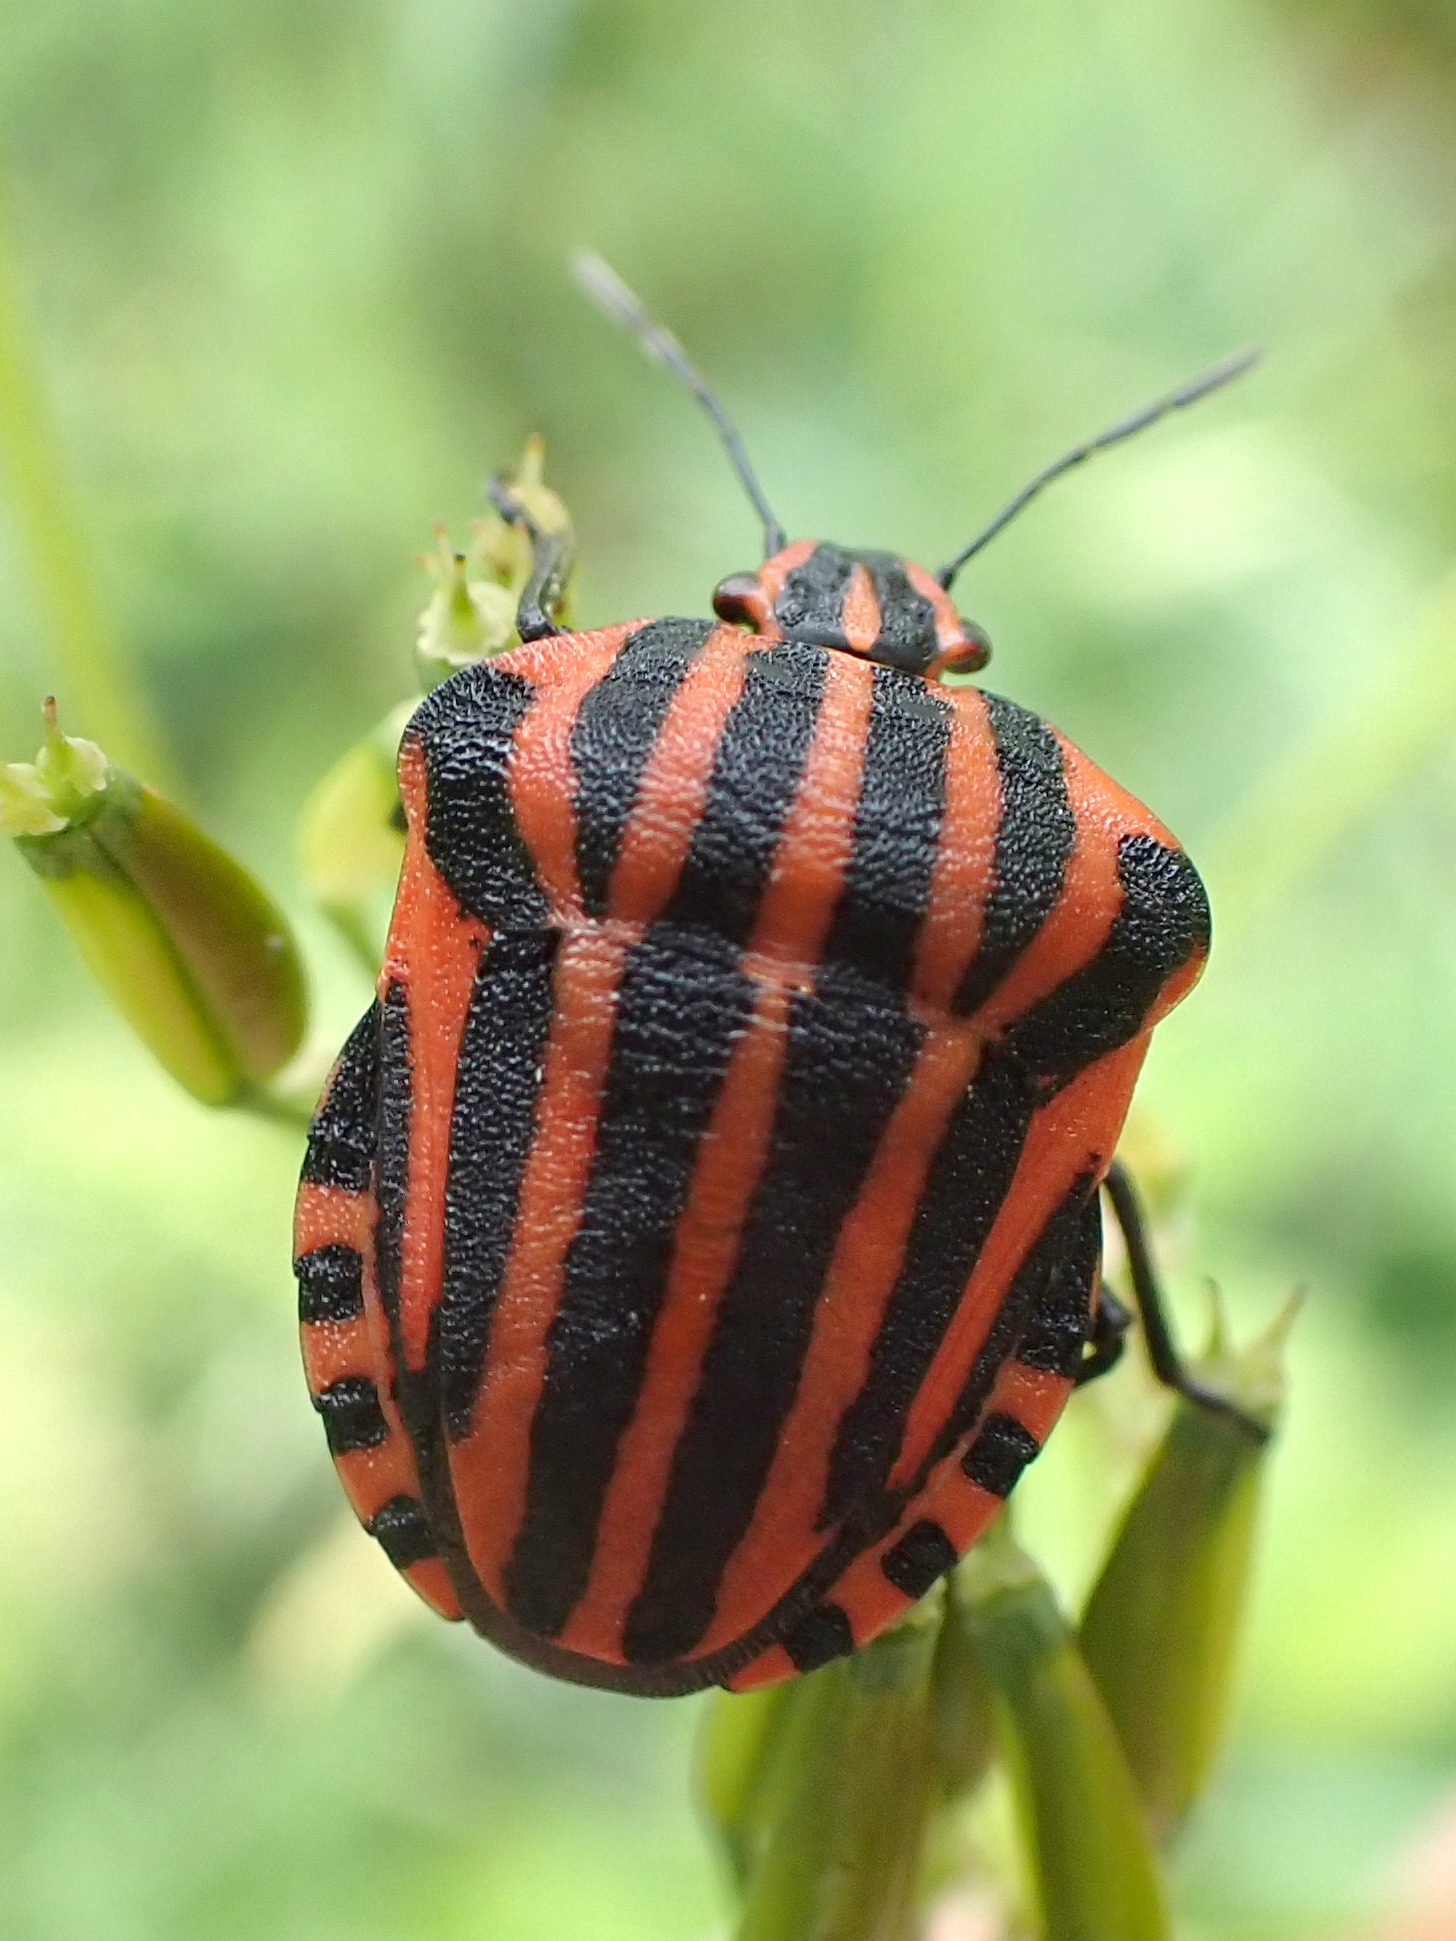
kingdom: Animalia
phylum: Arthropoda
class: Insecta
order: Hemiptera
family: Pentatomidae
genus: Graphosoma
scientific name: Graphosoma italicum
